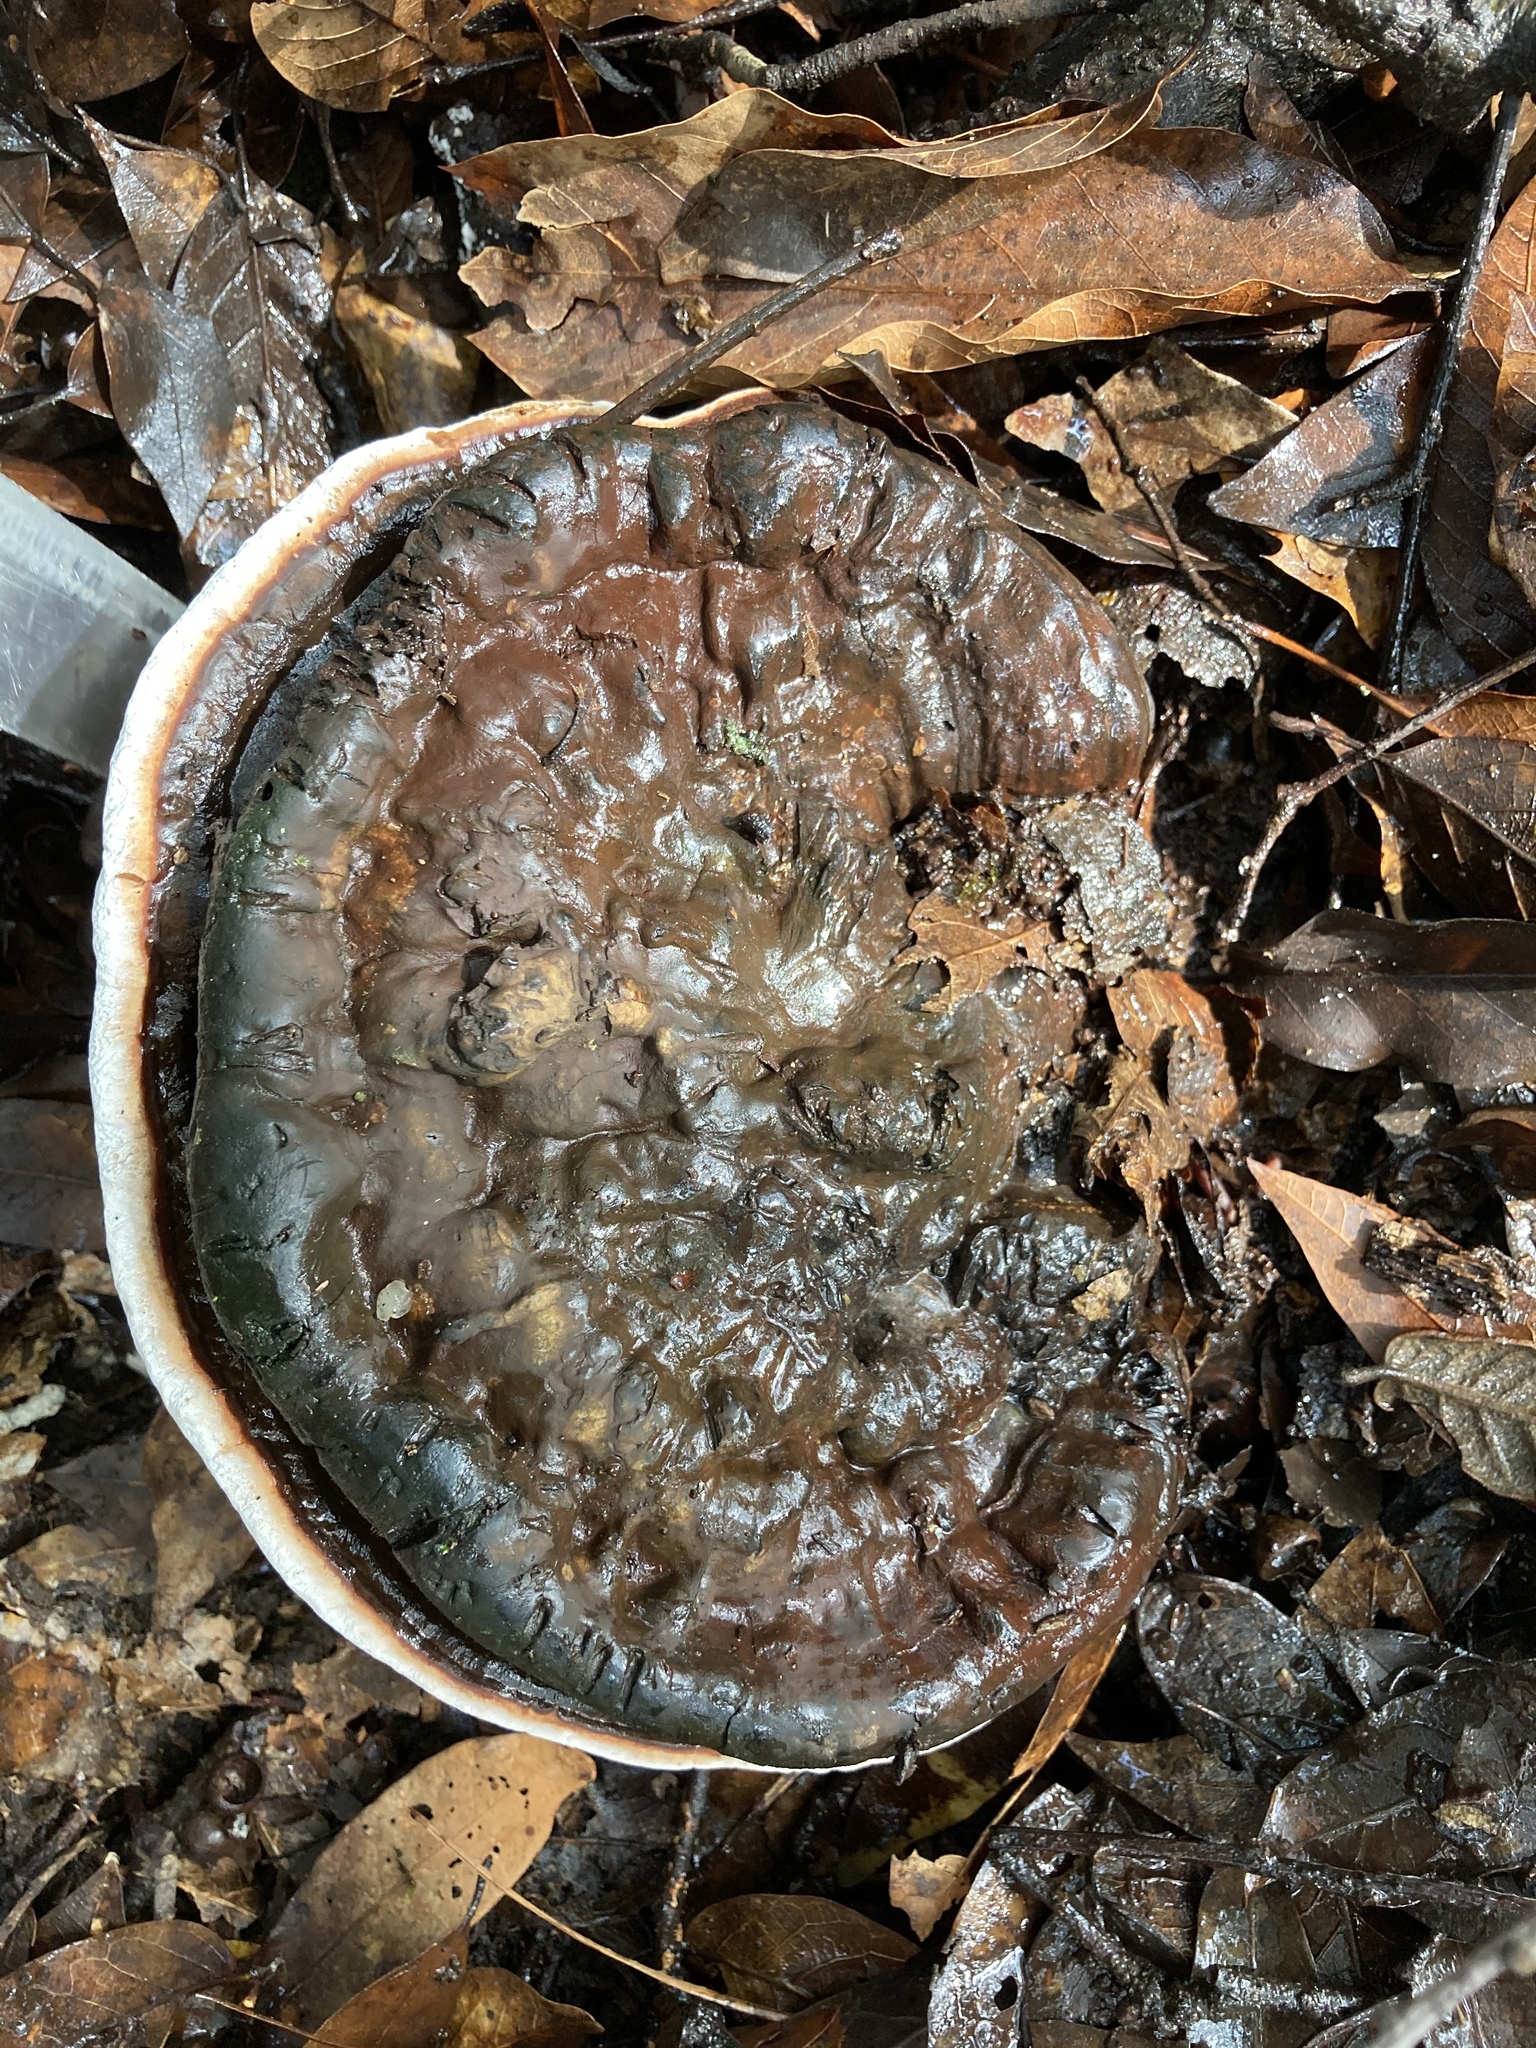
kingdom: Fungi
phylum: Basidiomycota
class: Agaricomycetes
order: Polyporales
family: Polyporaceae
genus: Ganoderma
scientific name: Ganoderma applanatum
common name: Artist's bracket
